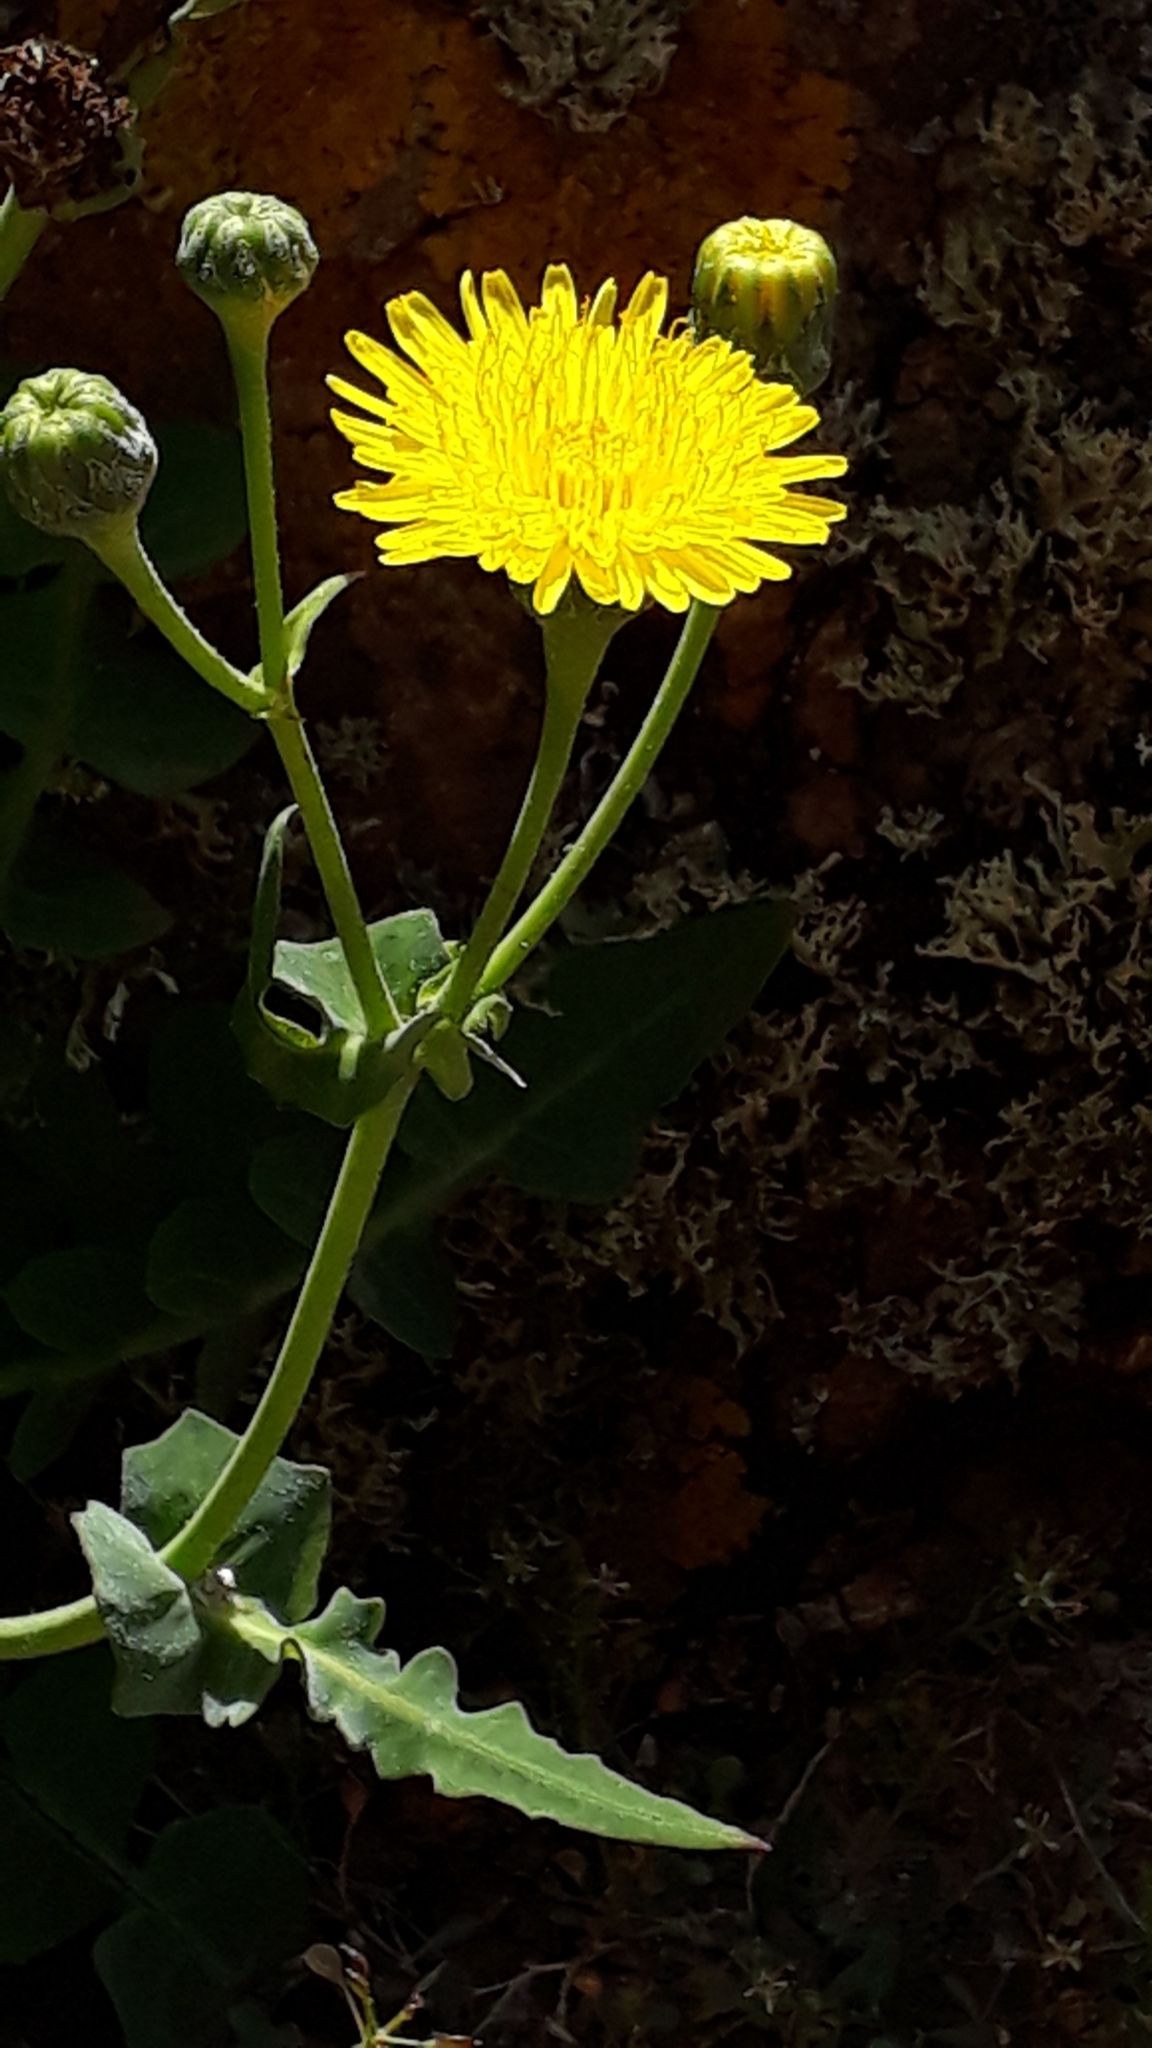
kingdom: Plantae
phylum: Tracheophyta
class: Magnoliopsida
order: Asterales
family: Asteraceae
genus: Sonchus
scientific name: Sonchus radicatus
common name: Long-rooted sow-thistle
